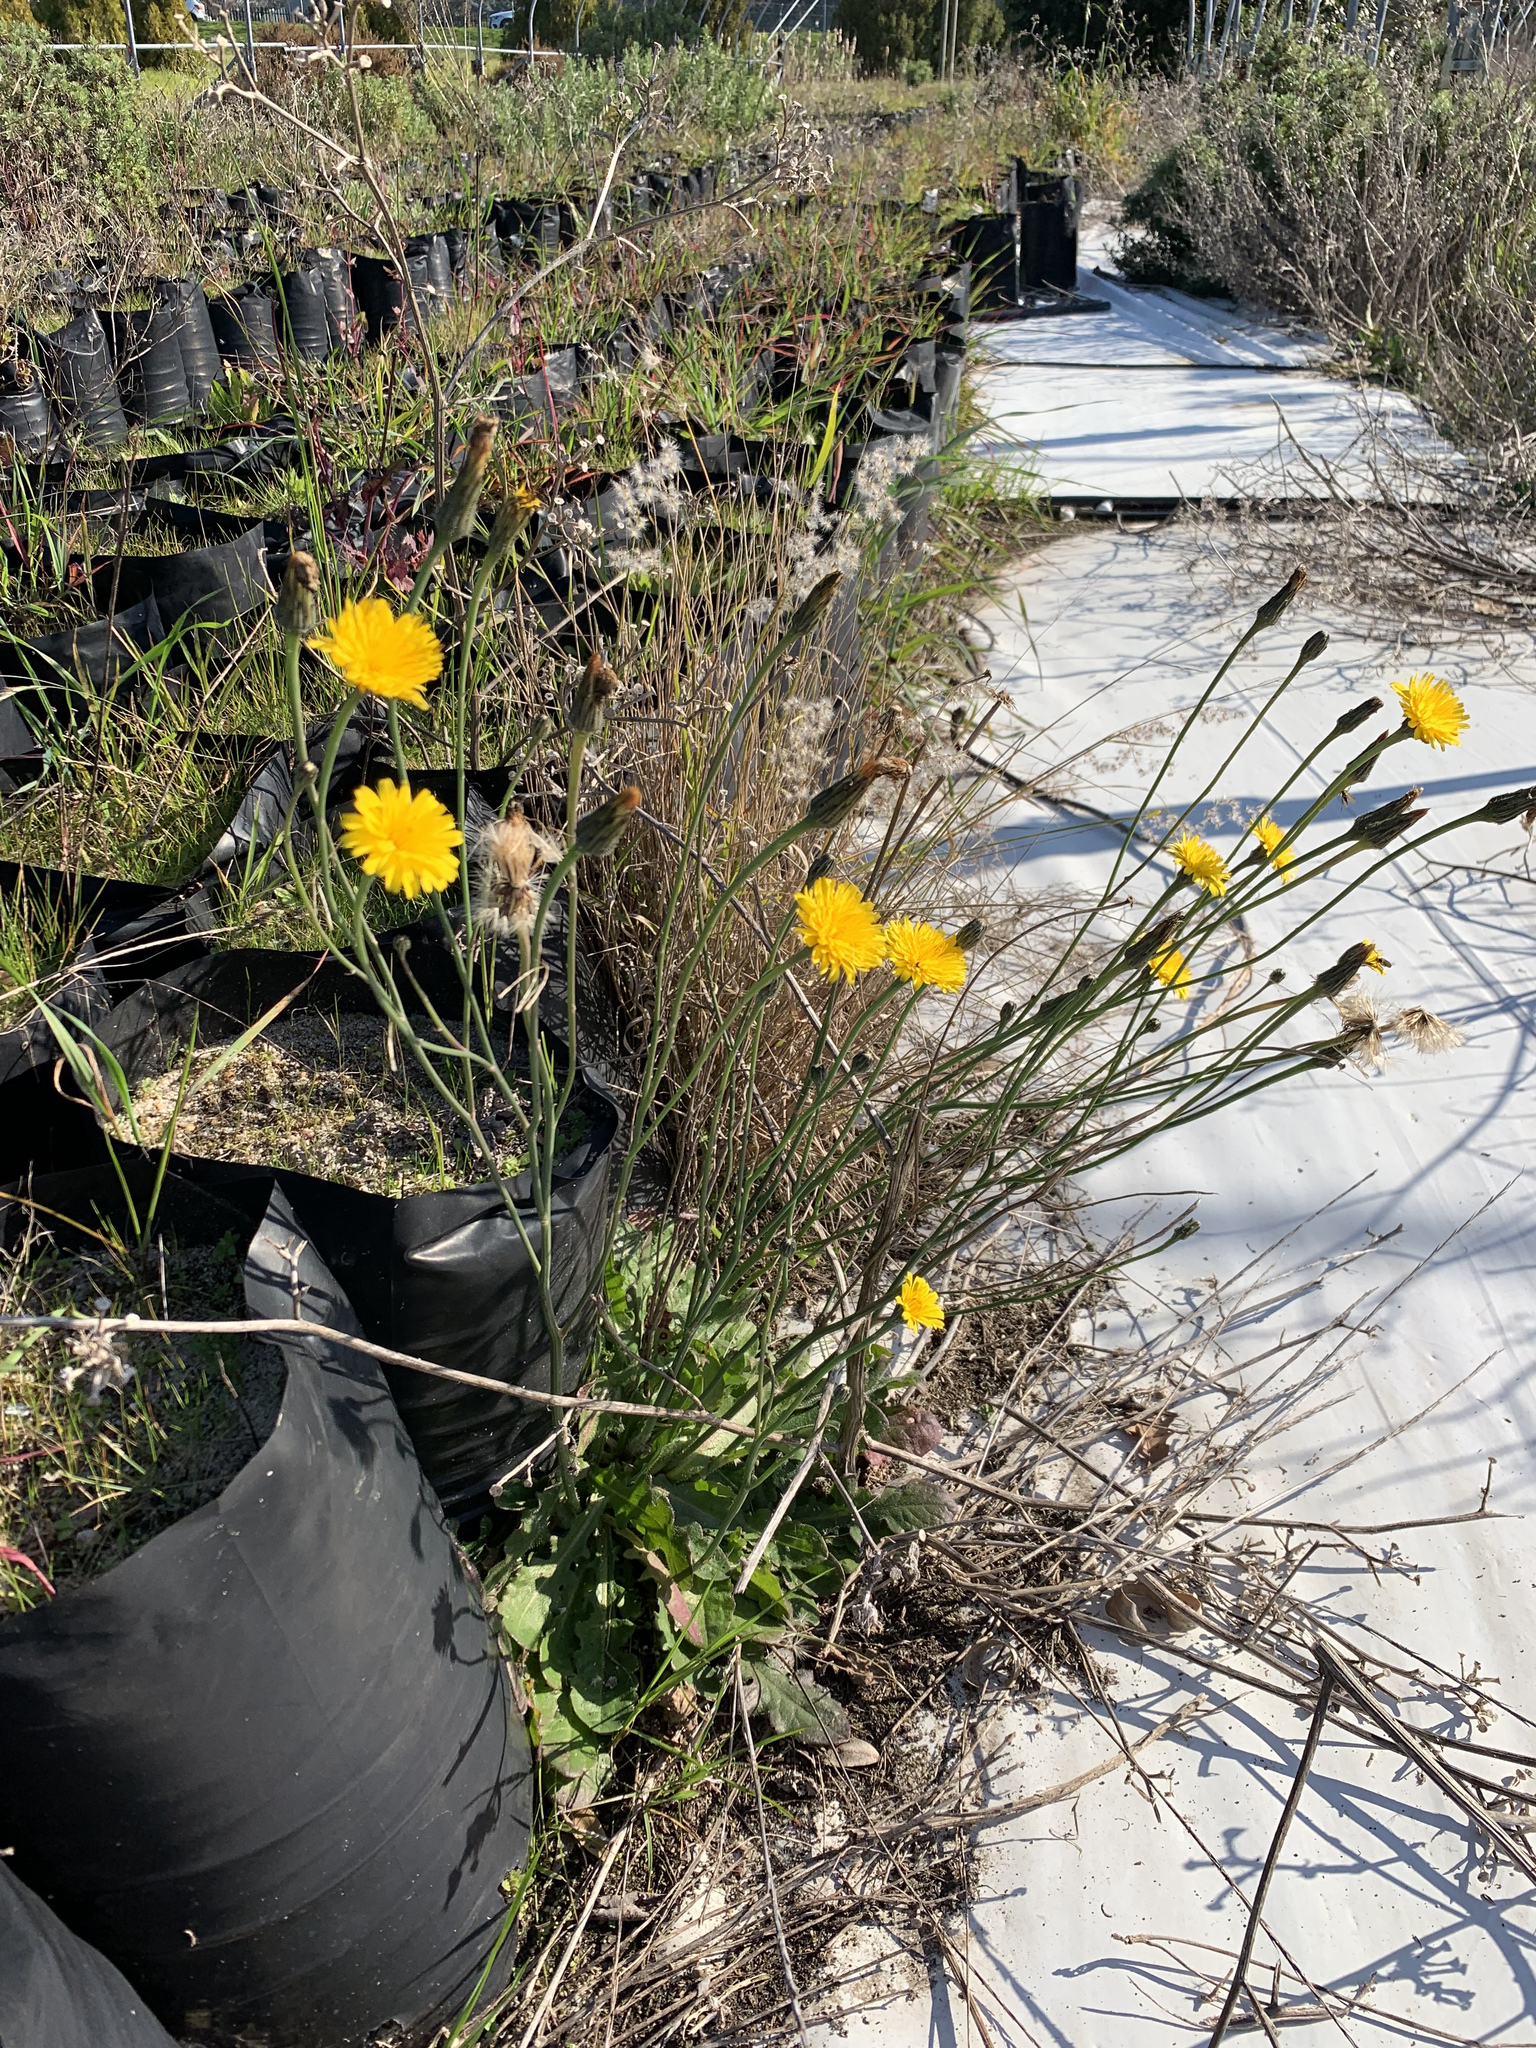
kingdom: Plantae
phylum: Tracheophyta
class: Magnoliopsida
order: Asterales
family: Asteraceae
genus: Hypochaeris
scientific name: Hypochaeris radicata
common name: Flatweed
